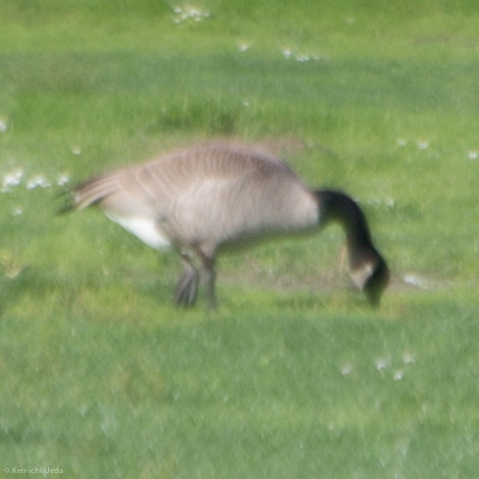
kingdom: Animalia
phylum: Chordata
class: Aves
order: Anseriformes
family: Anatidae
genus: Branta
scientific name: Branta canadensis
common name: Canada goose
